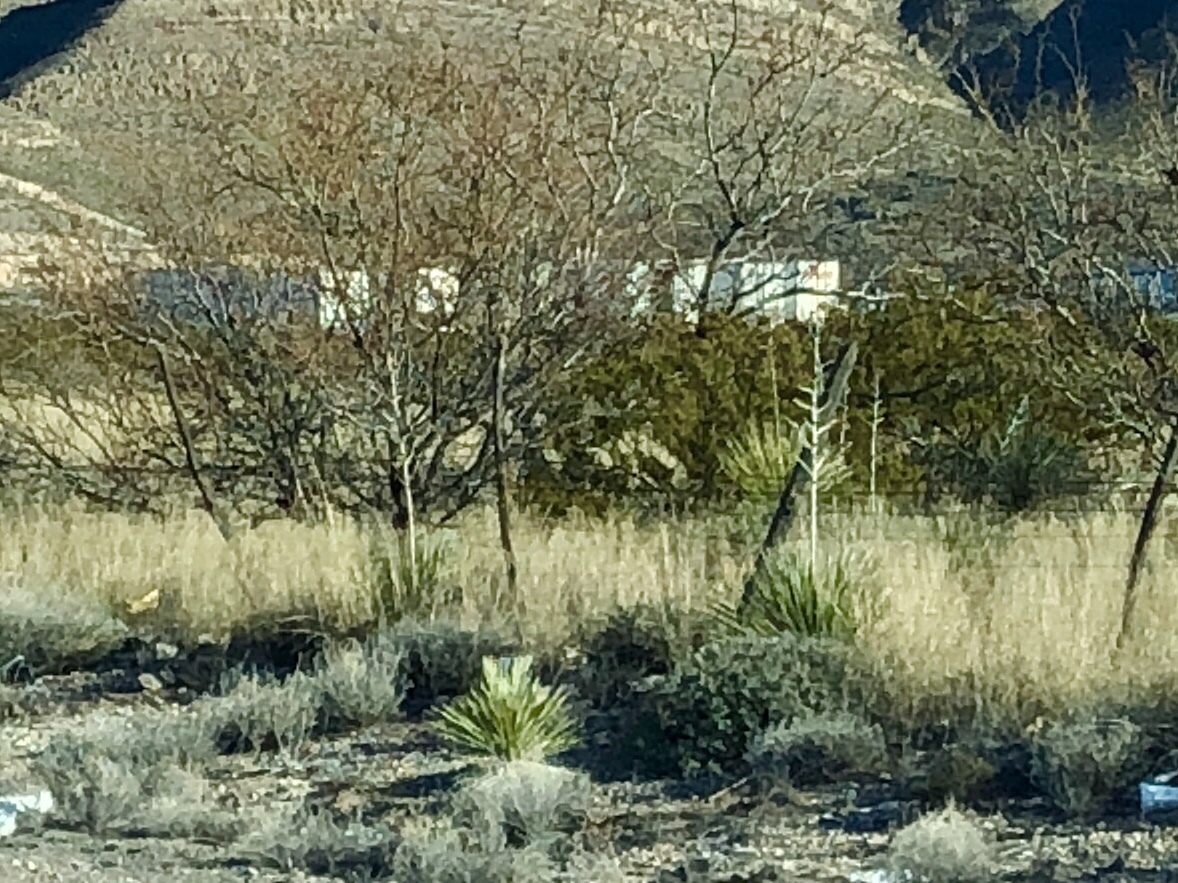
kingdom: Plantae
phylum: Tracheophyta
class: Liliopsida
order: Asparagales
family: Asparagaceae
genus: Yucca
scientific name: Yucca elata
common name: Palmella
